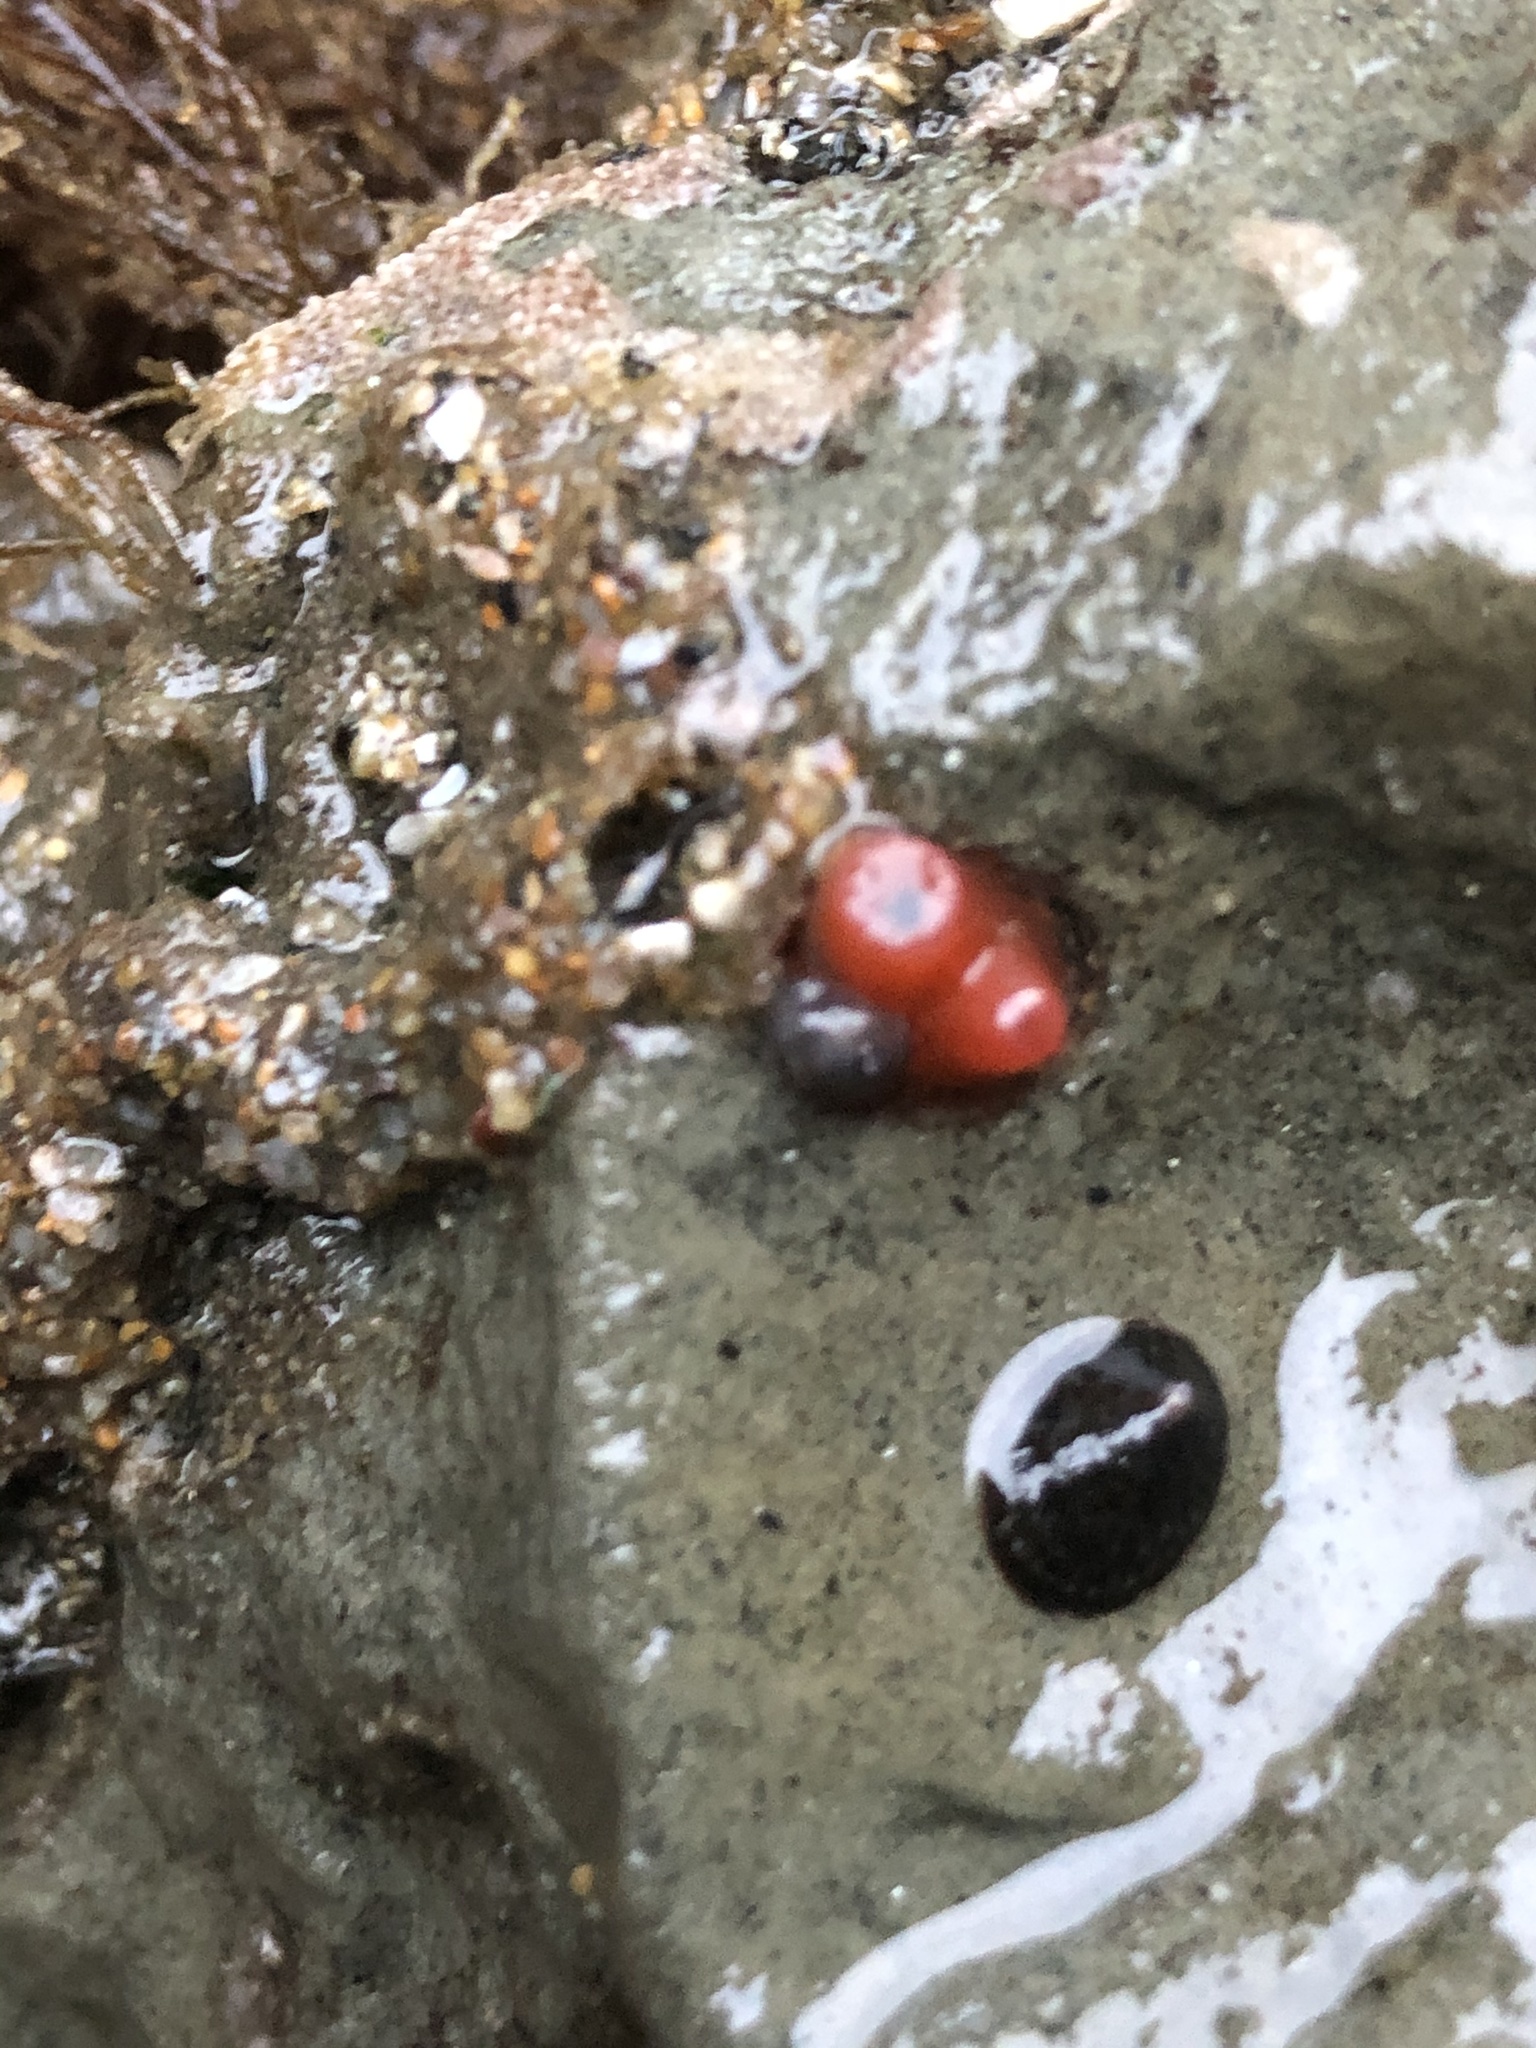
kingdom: Animalia
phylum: Mollusca
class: Bivalvia
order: Adapedonta
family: Hiatellidae
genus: Hiatella
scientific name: Hiatella arctica
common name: Arctic hiatella
